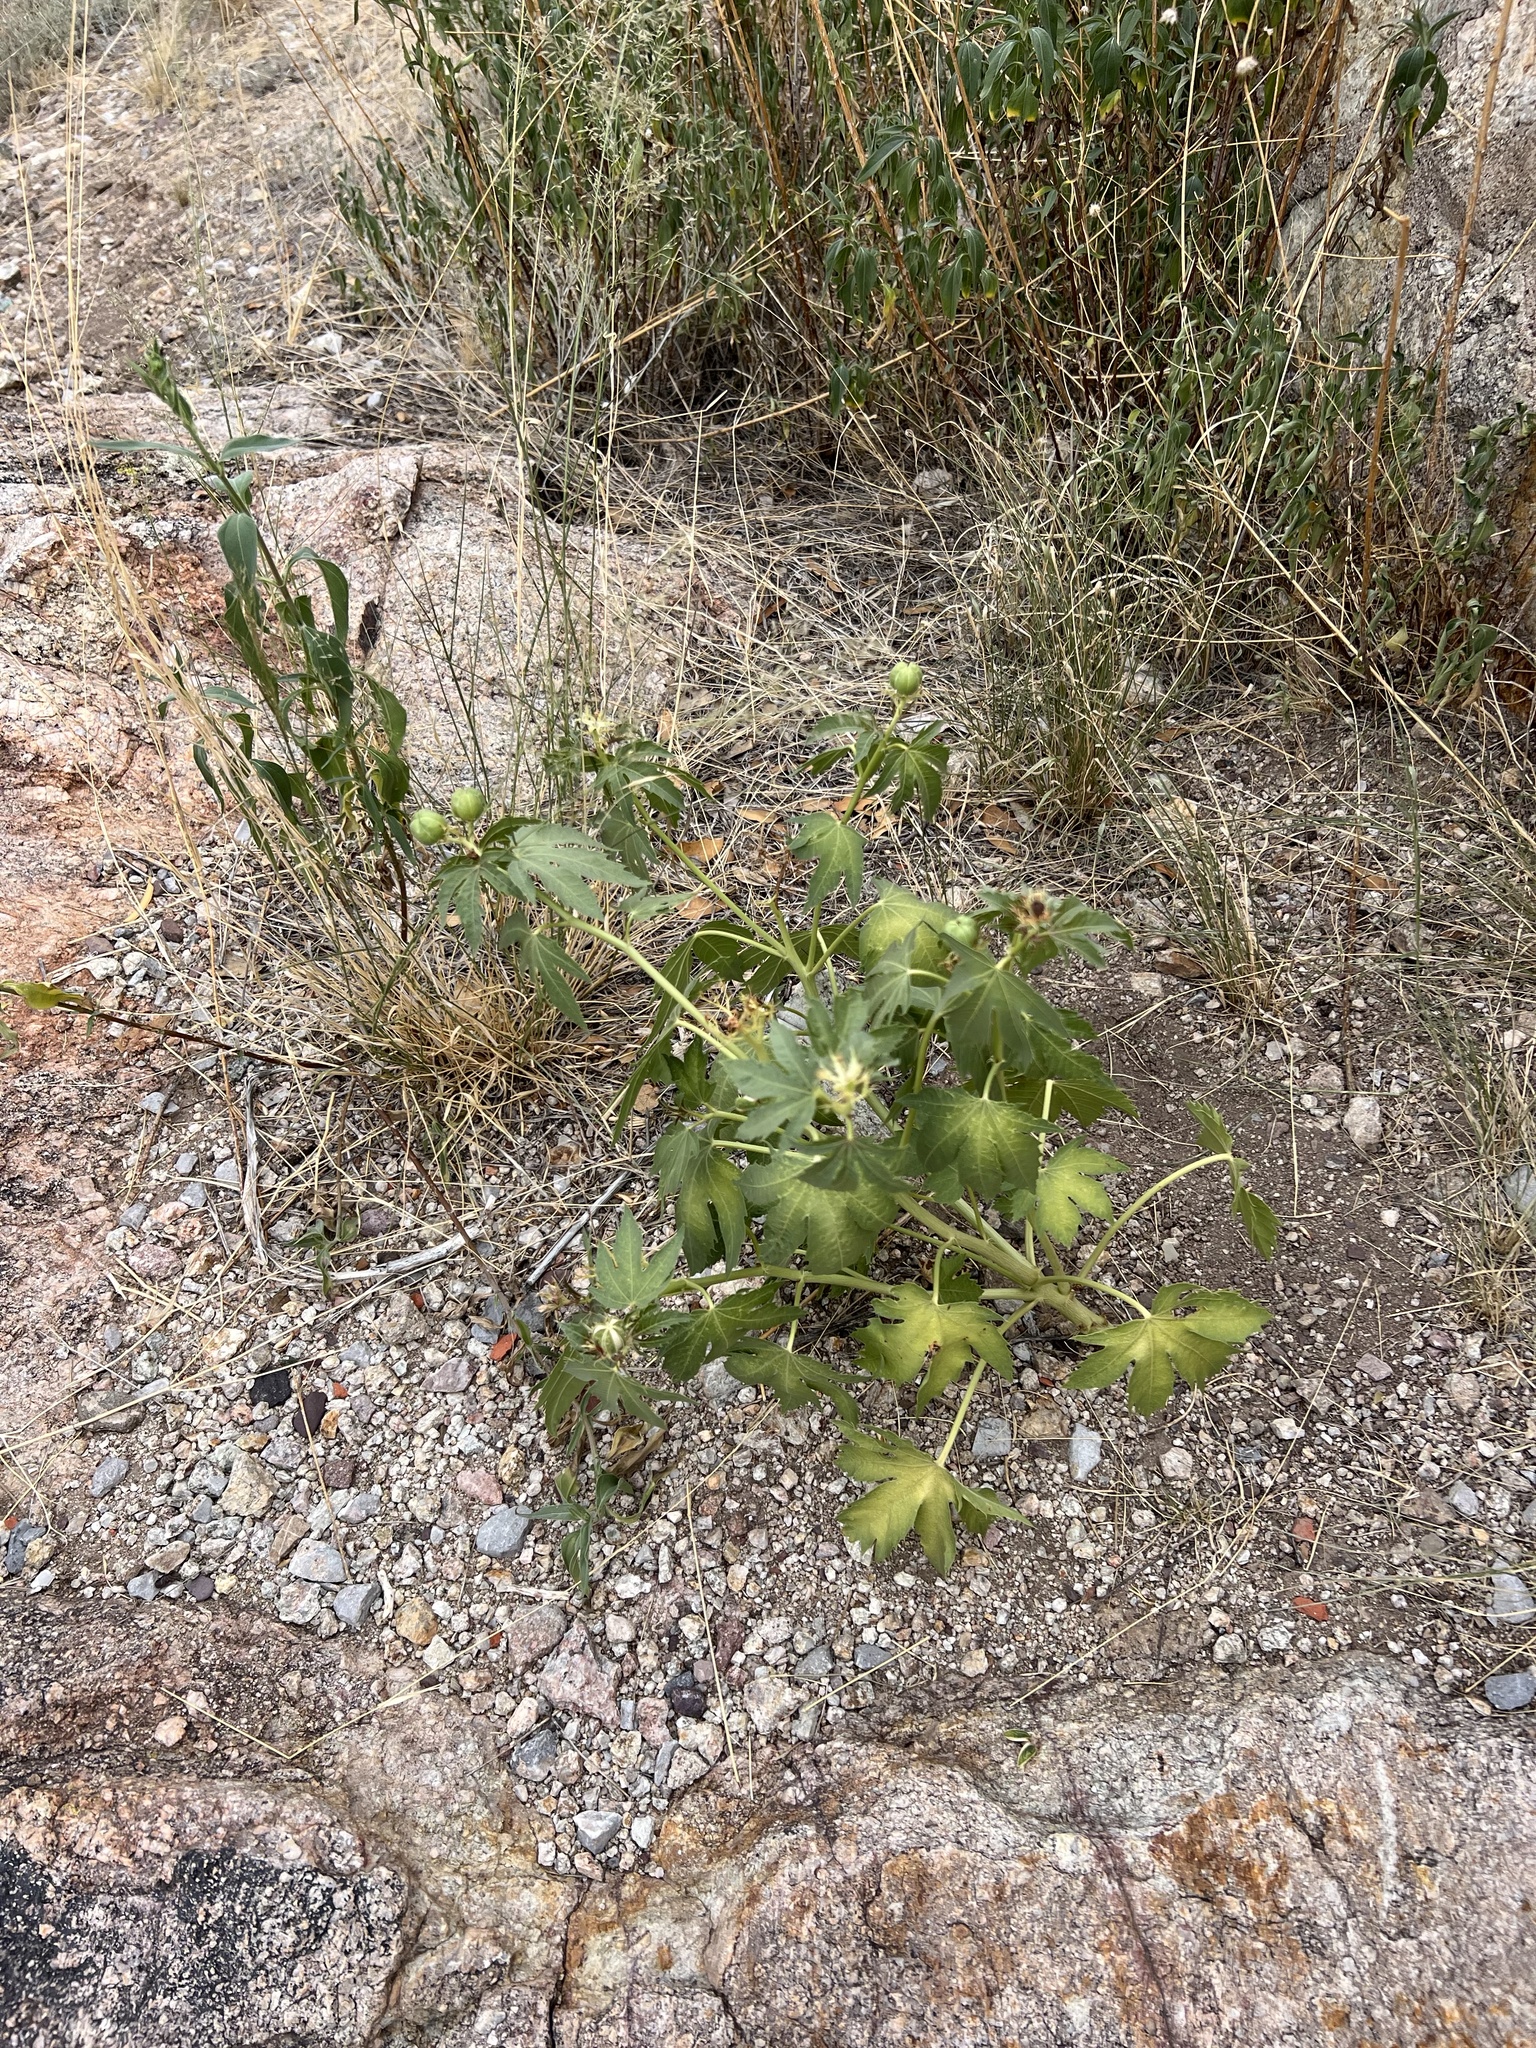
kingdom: Plantae
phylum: Tracheophyta
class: Magnoliopsida
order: Malpighiales
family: Euphorbiaceae
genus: Jatropha
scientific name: Jatropha macrorhiza
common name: Ragged nettlespurge
